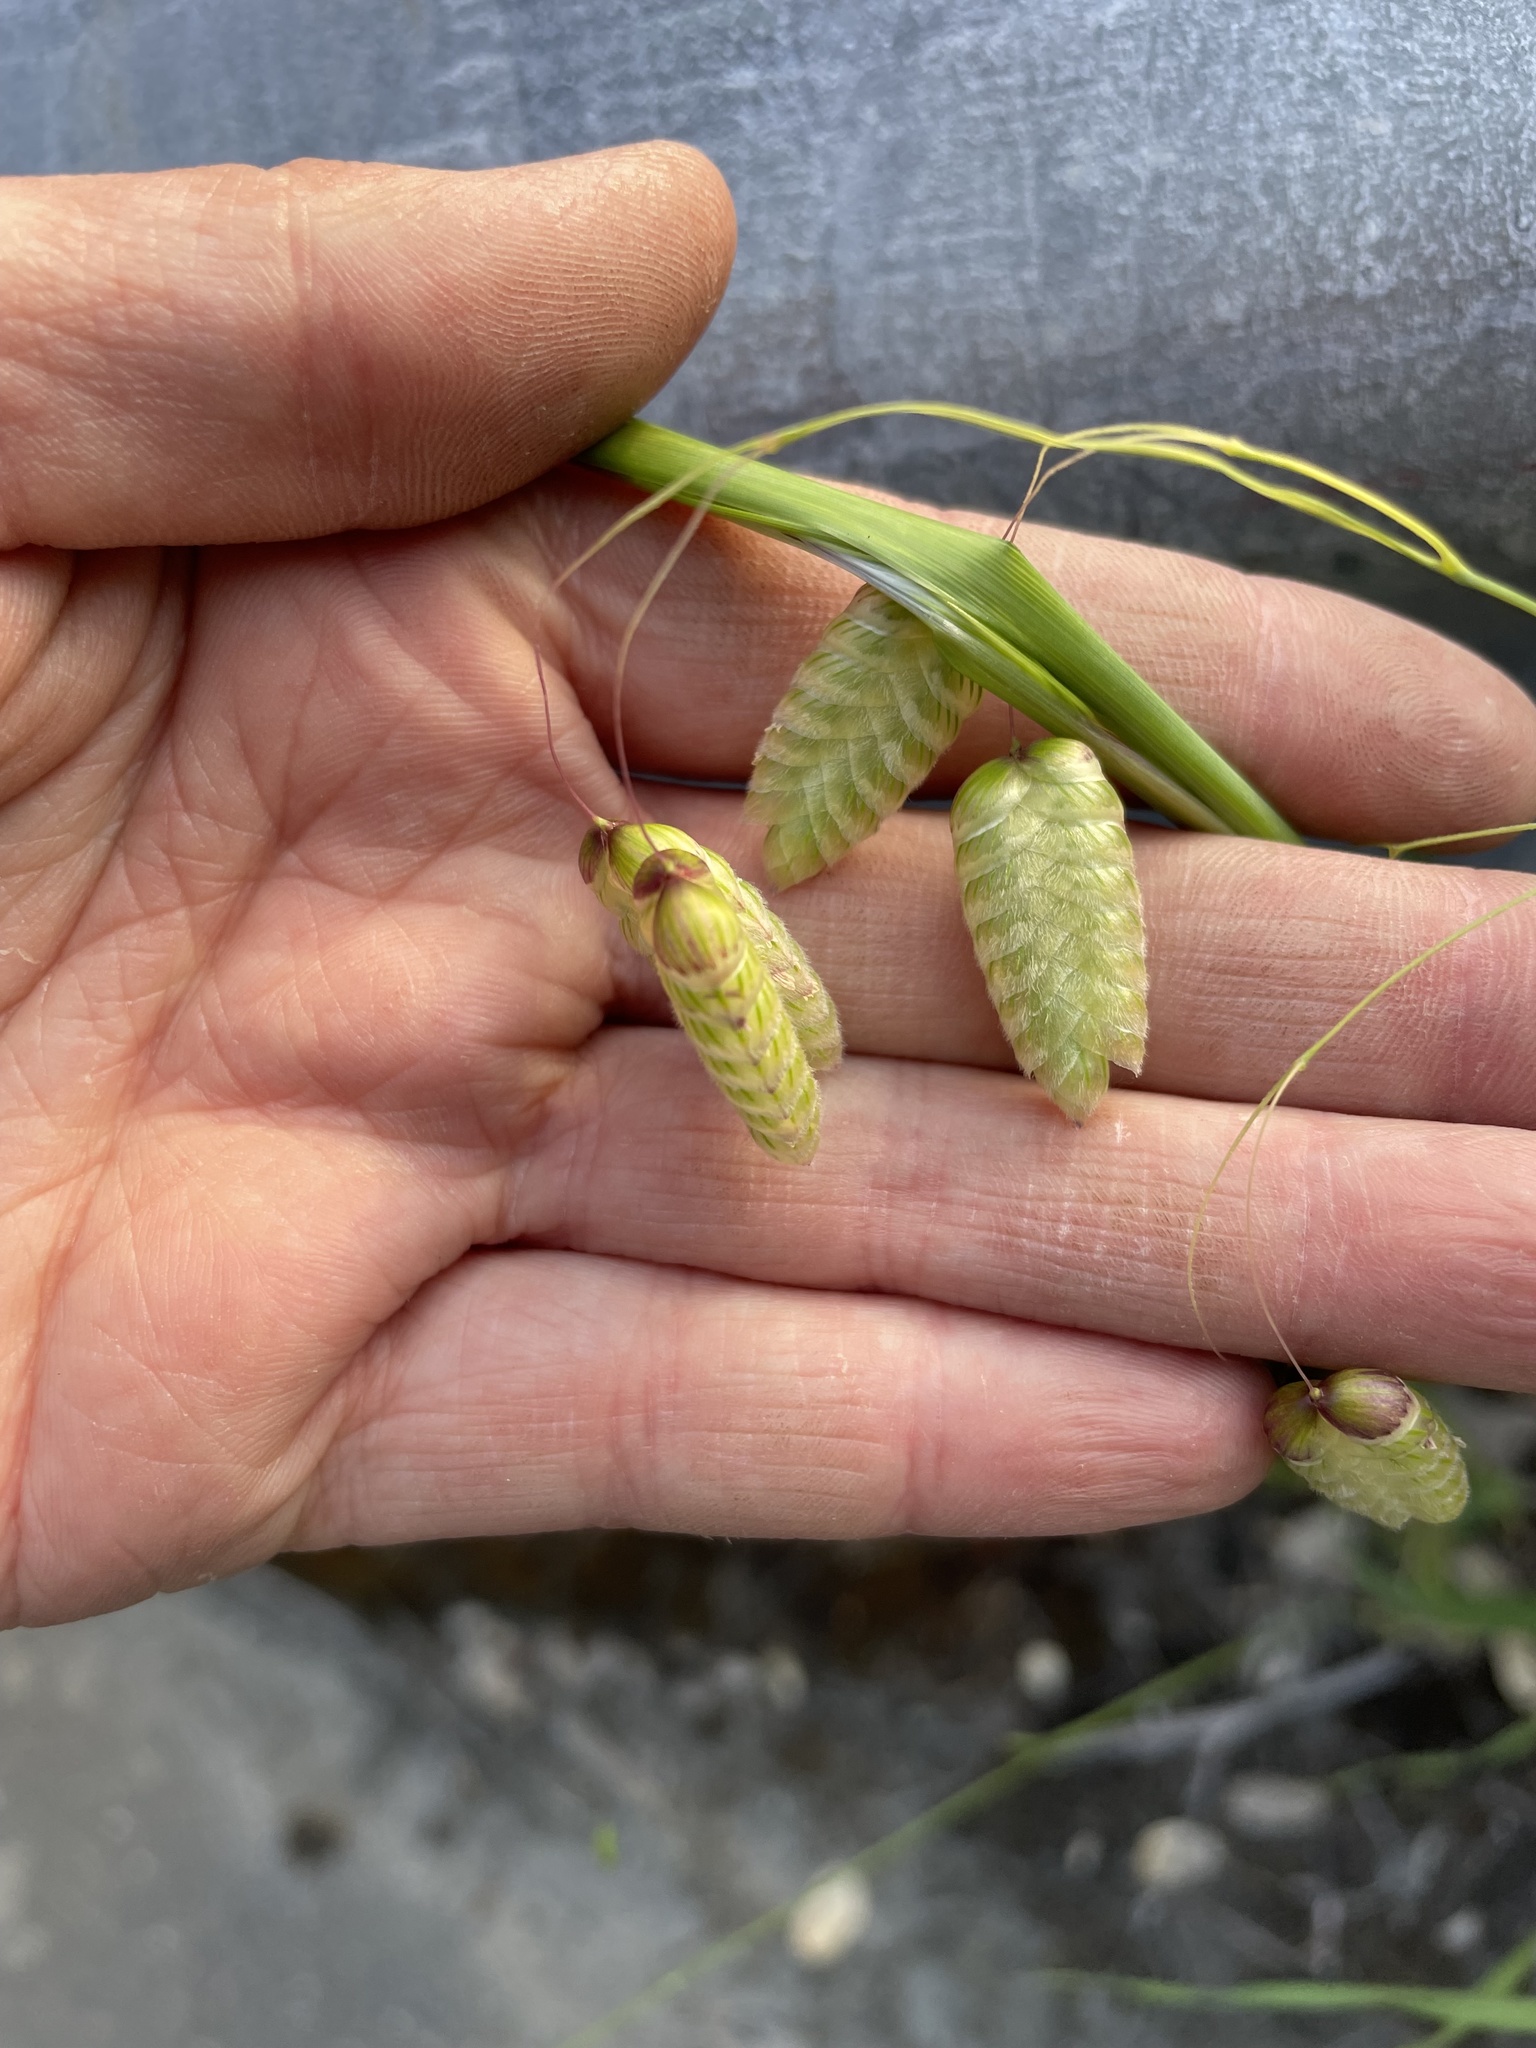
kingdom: Plantae
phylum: Tracheophyta
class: Liliopsida
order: Poales
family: Poaceae
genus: Briza
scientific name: Briza maxima
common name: Big quakinggrass
